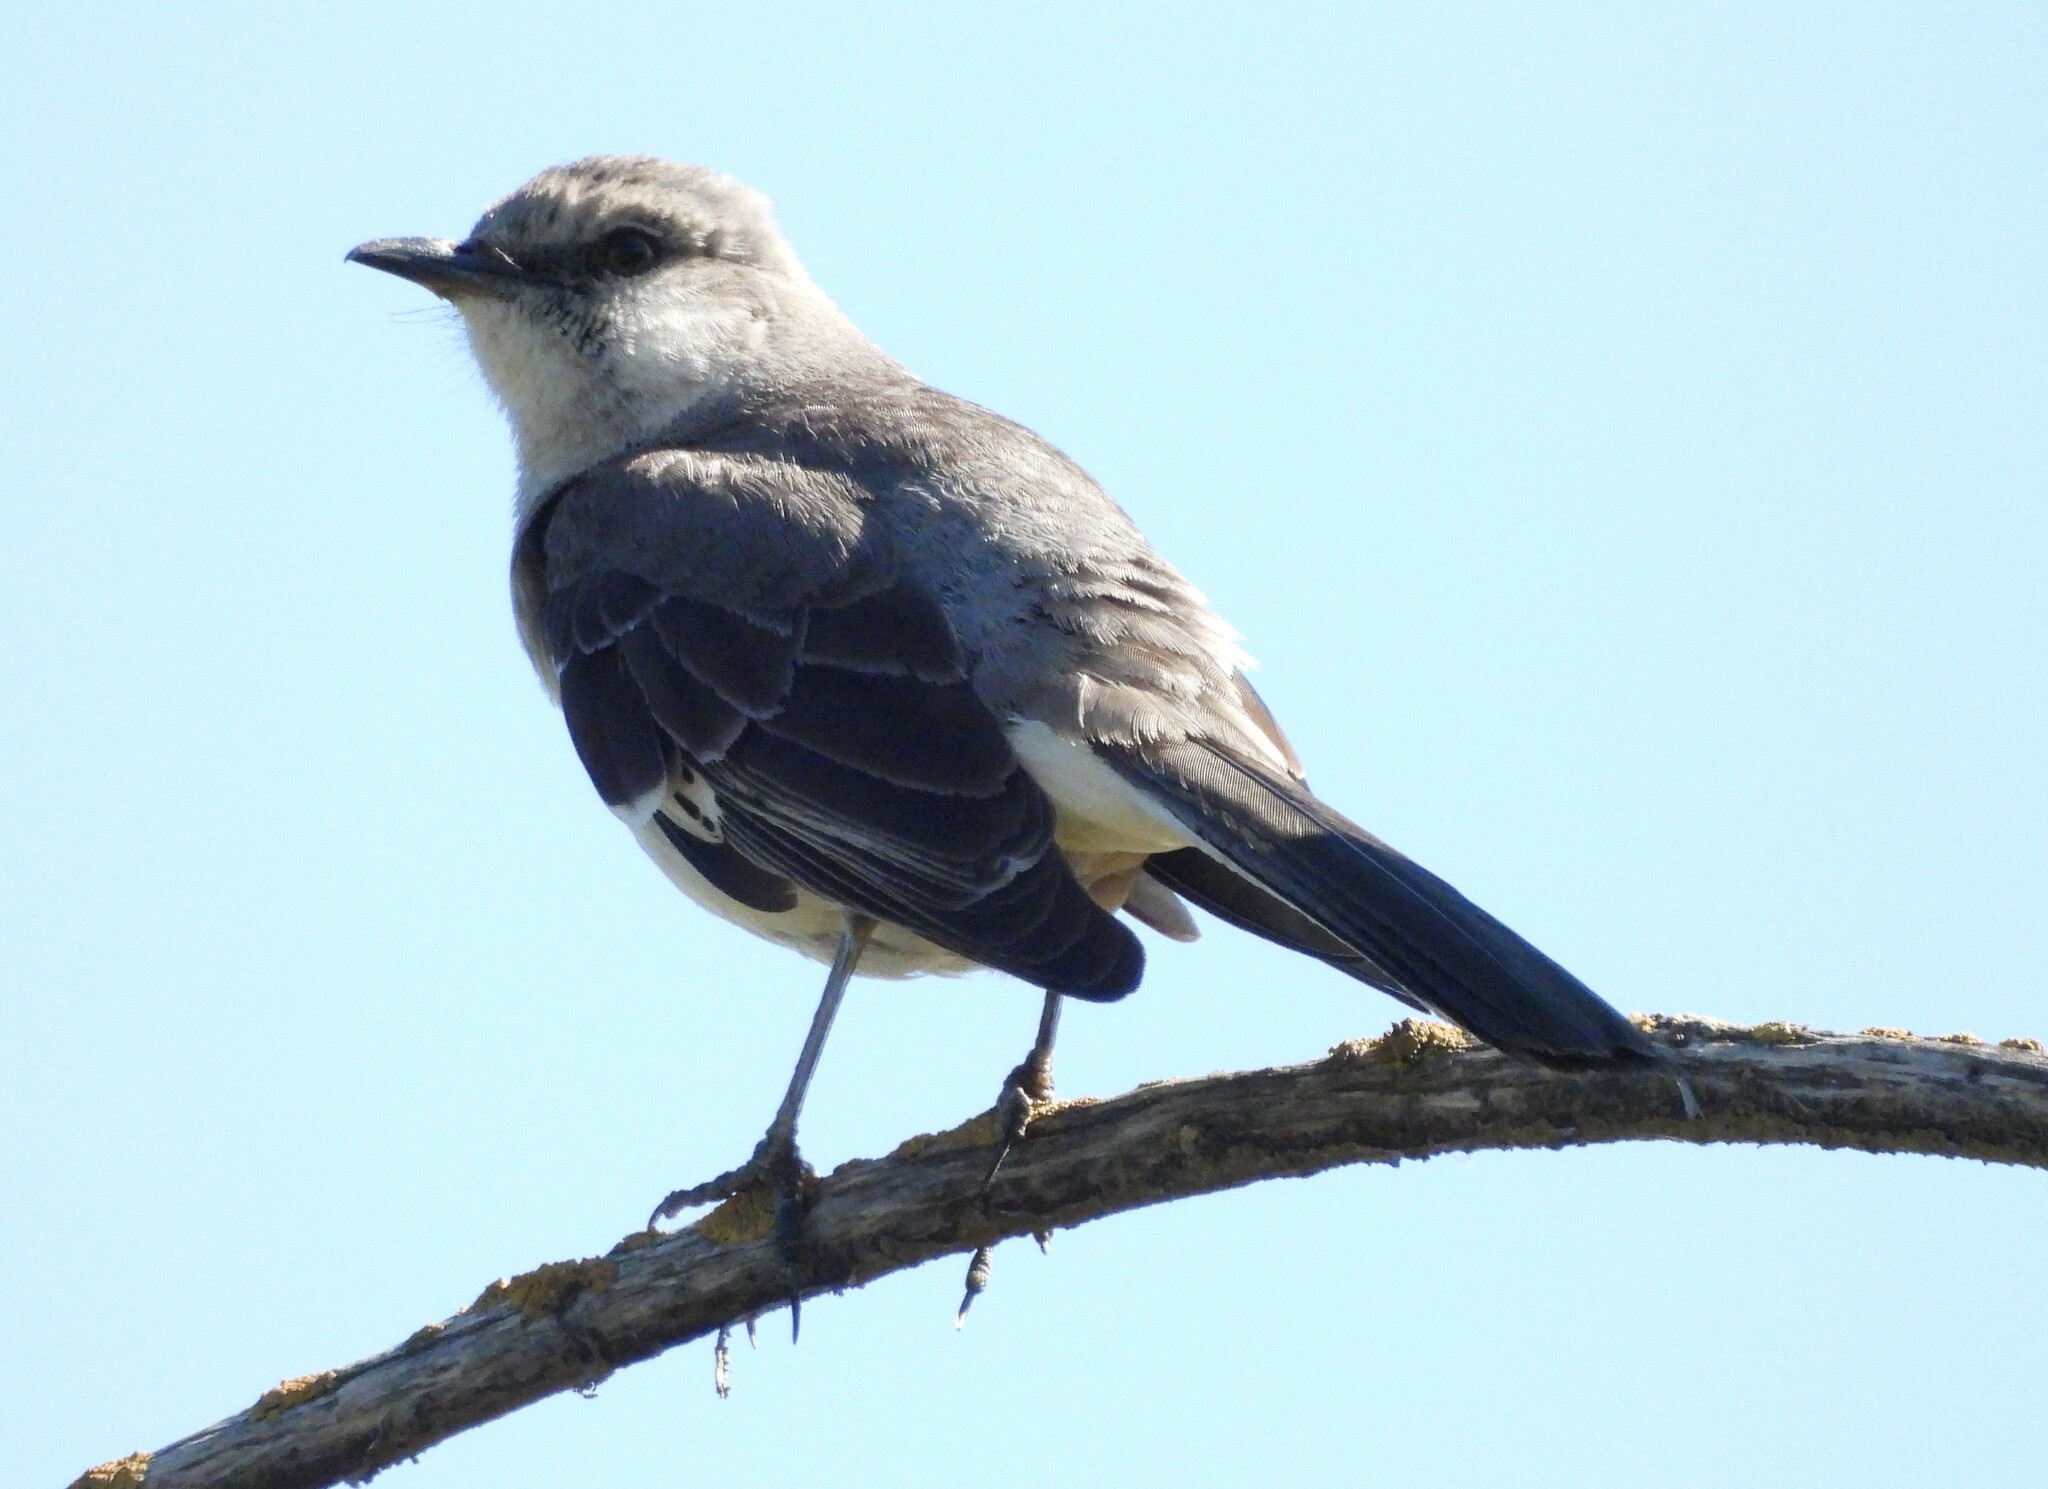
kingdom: Animalia
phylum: Chordata
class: Aves
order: Passeriformes
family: Mimidae
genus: Mimus
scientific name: Mimus polyglottos
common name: Northern mockingbird
